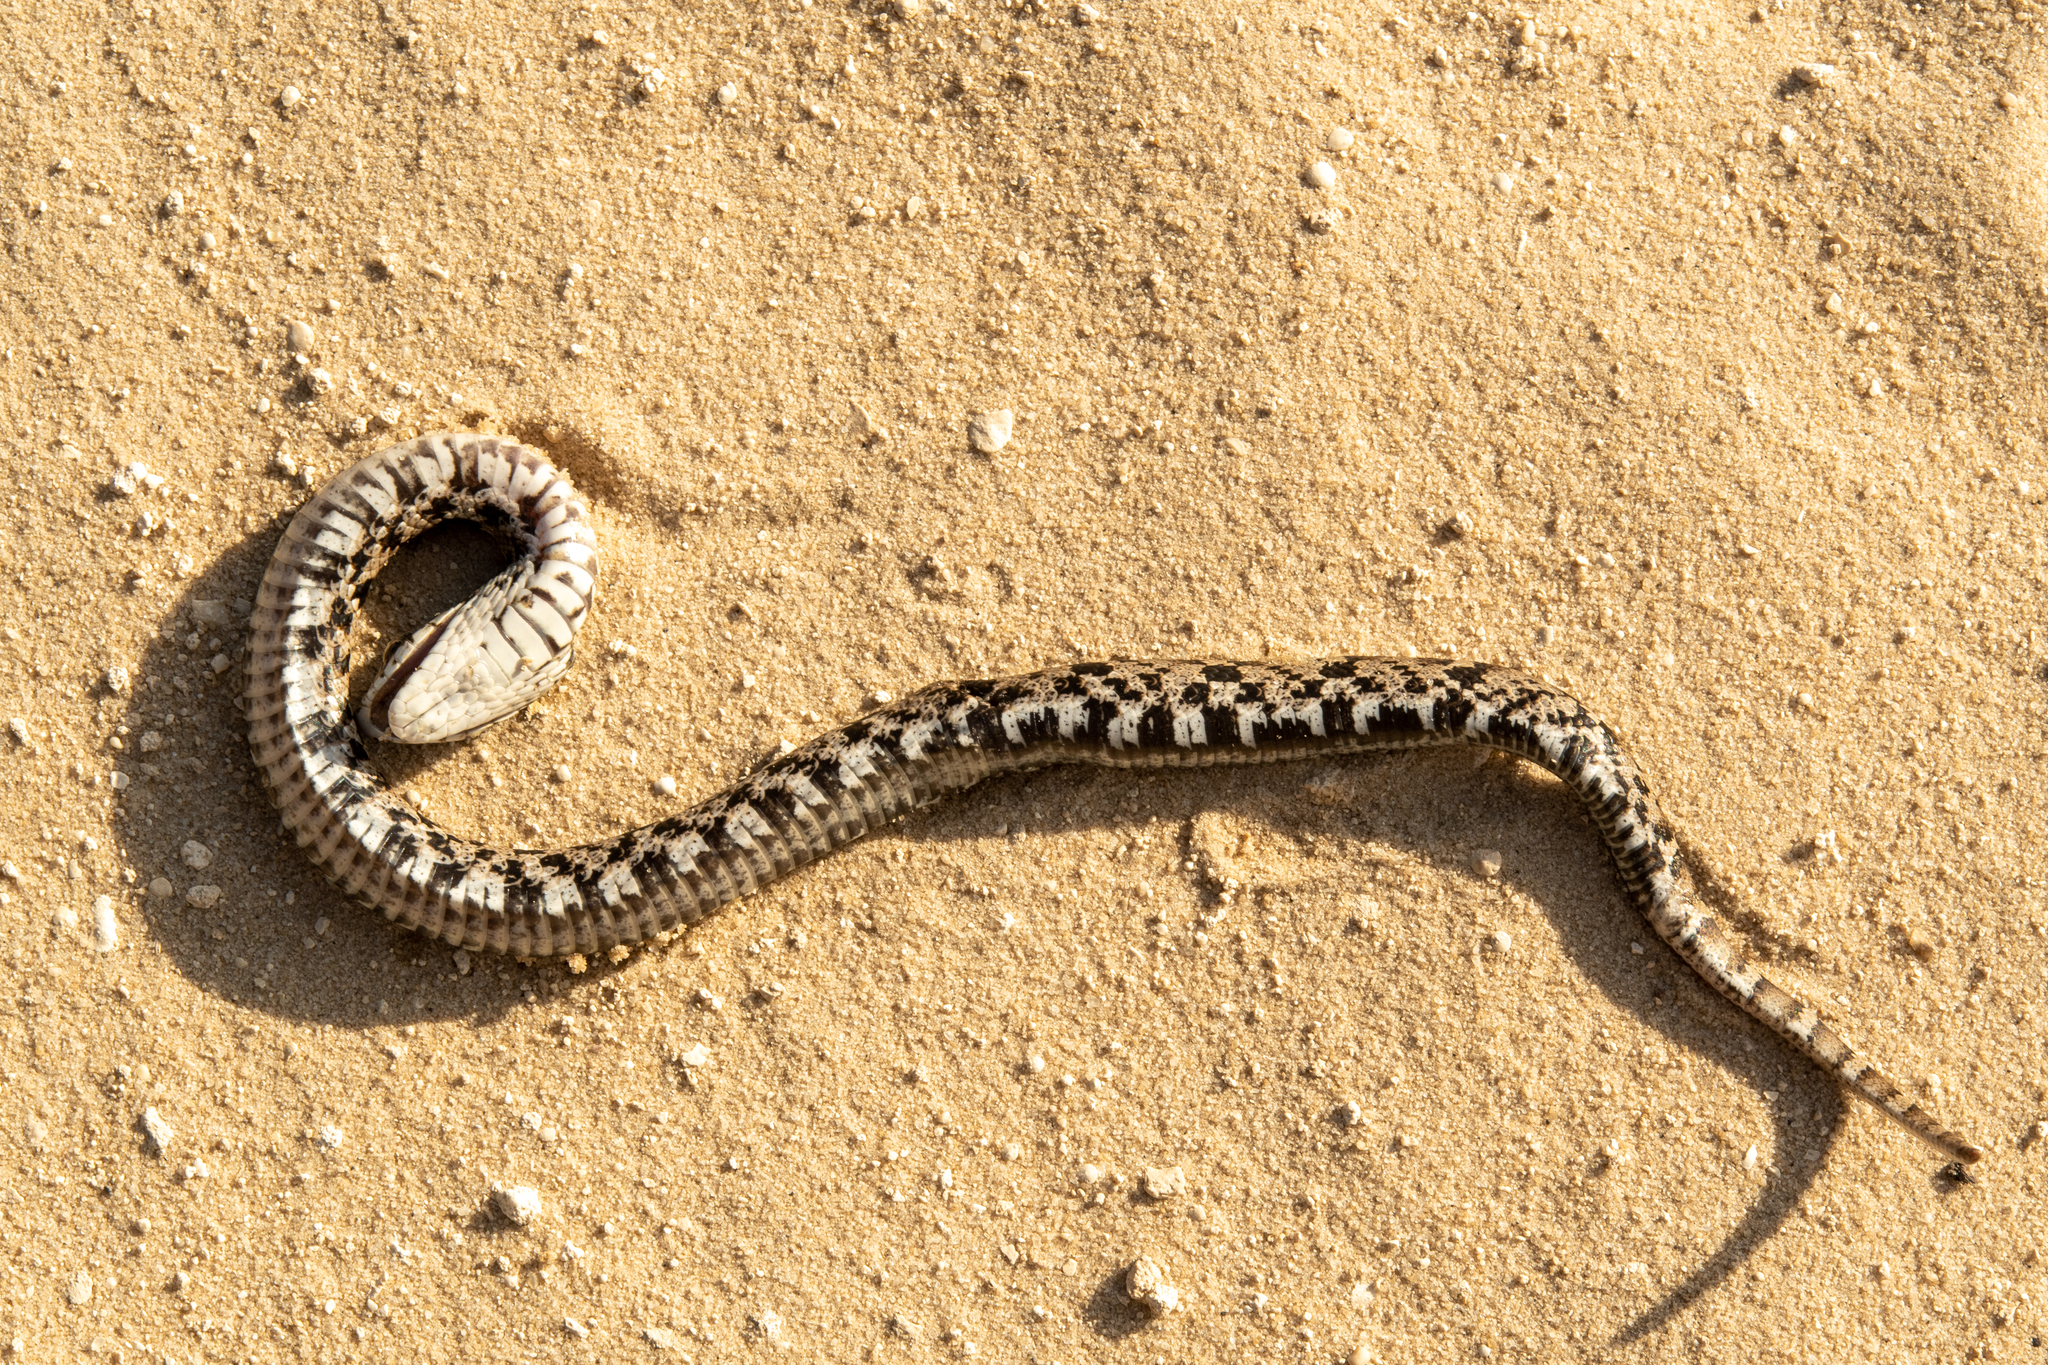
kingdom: Animalia
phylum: Chordata
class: Squamata
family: Colubridae
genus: Heterodon
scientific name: Heterodon platirhinos
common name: Eastern hognose snake
